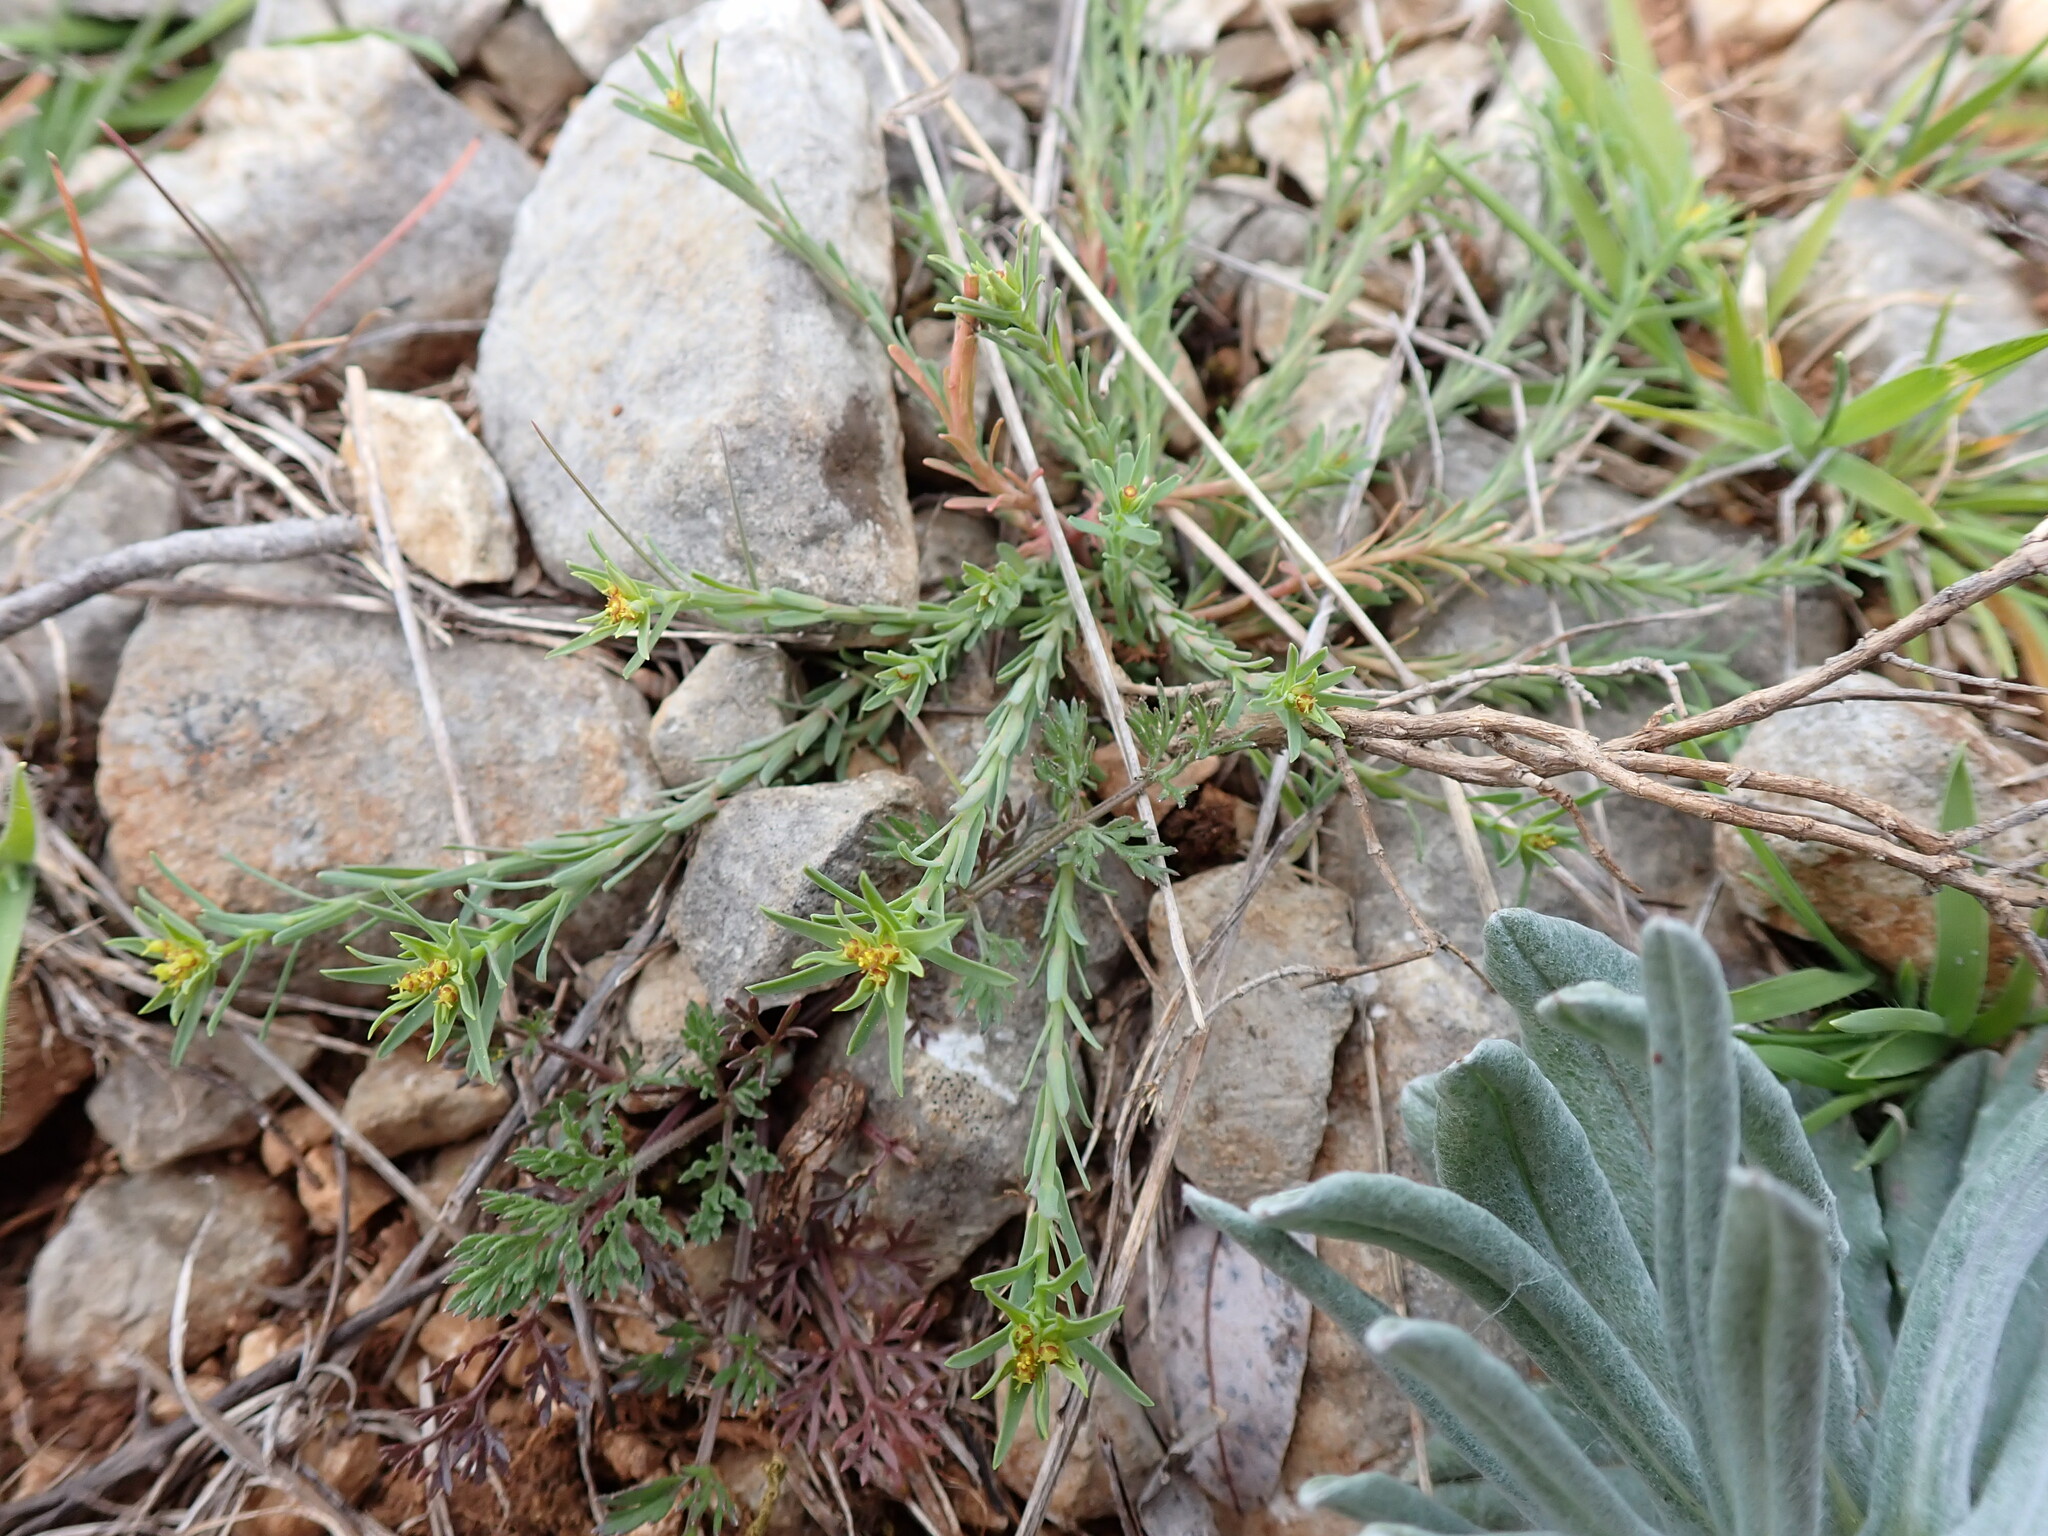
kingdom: Plantae
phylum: Tracheophyta
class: Magnoliopsida
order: Malpighiales
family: Euphorbiaceae
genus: Euphorbia
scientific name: Euphorbia exigua
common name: Dwarf spurge
